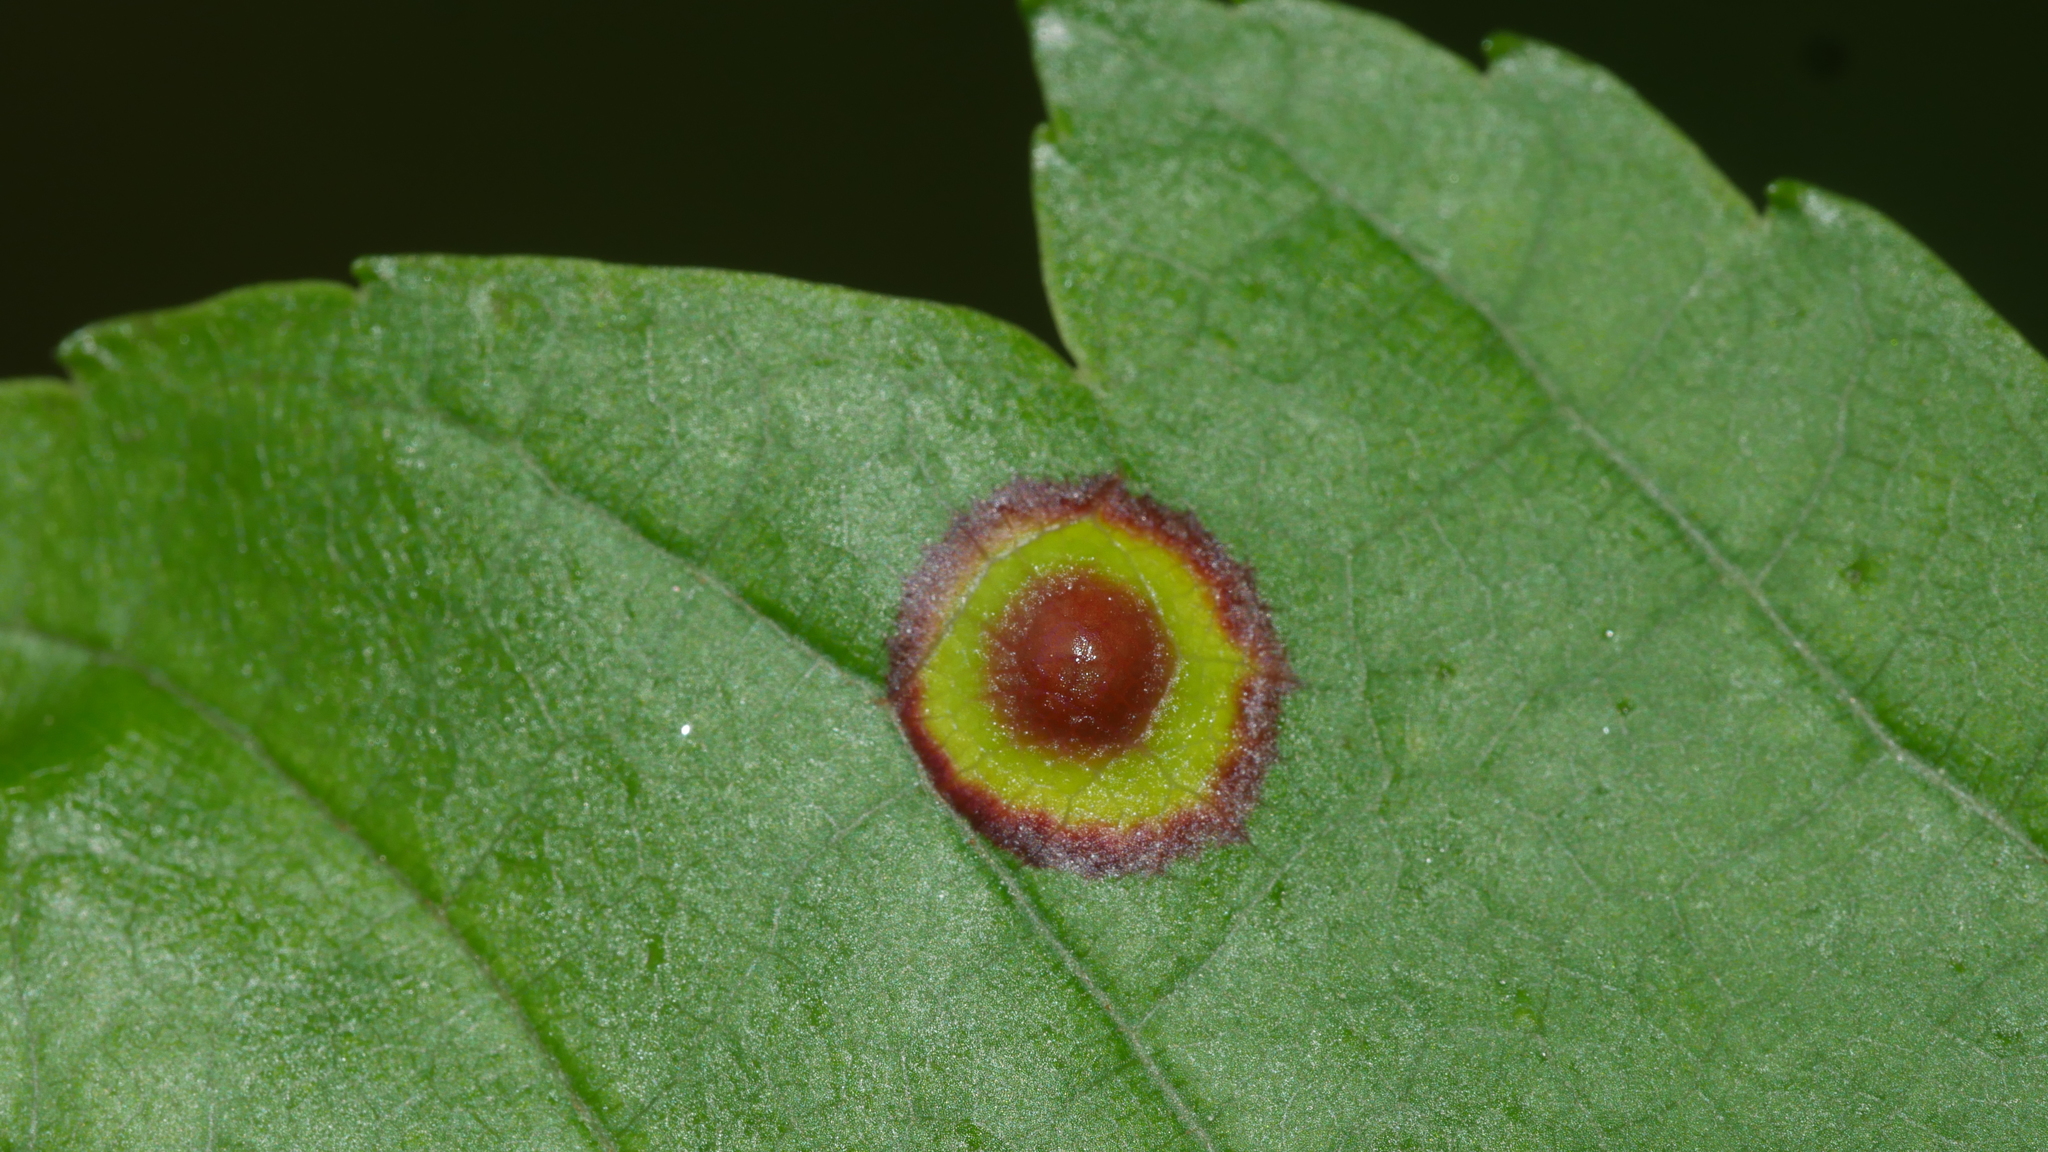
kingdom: Animalia
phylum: Arthropoda
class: Insecta
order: Diptera
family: Cecidomyiidae
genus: Acericecis
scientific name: Acericecis ocellaris
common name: Ocellate gall midge
